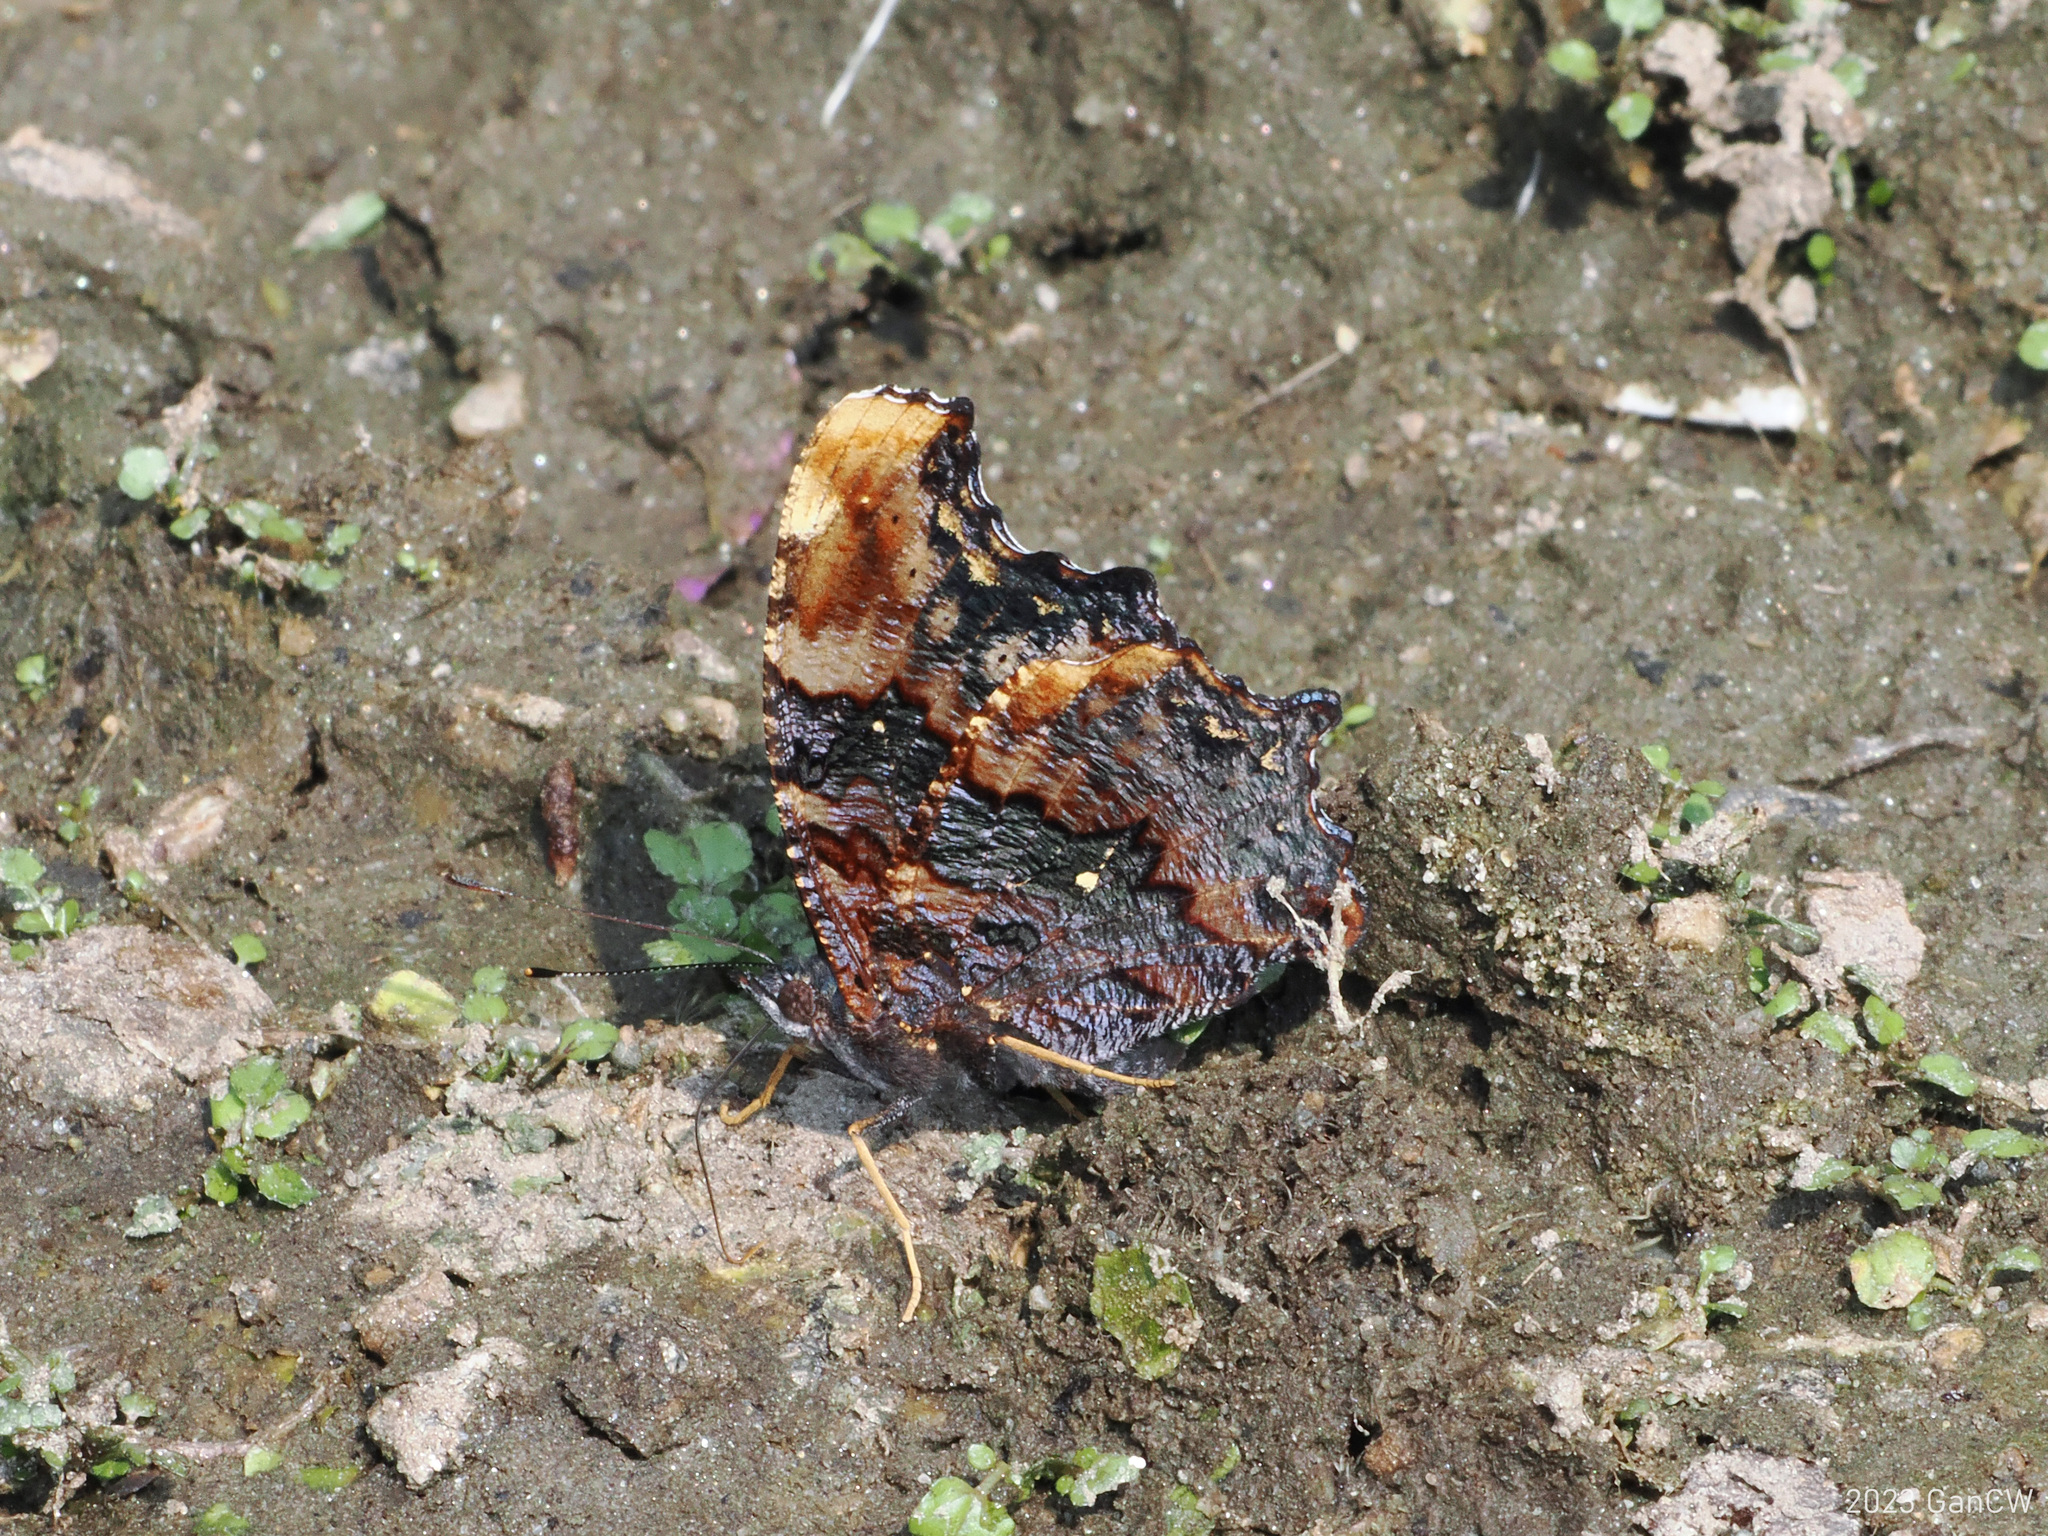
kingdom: Animalia
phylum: Arthropoda
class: Insecta
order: Lepidoptera
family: Nymphalidae
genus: Vanessa
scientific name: Vanessa Kaniska canace
